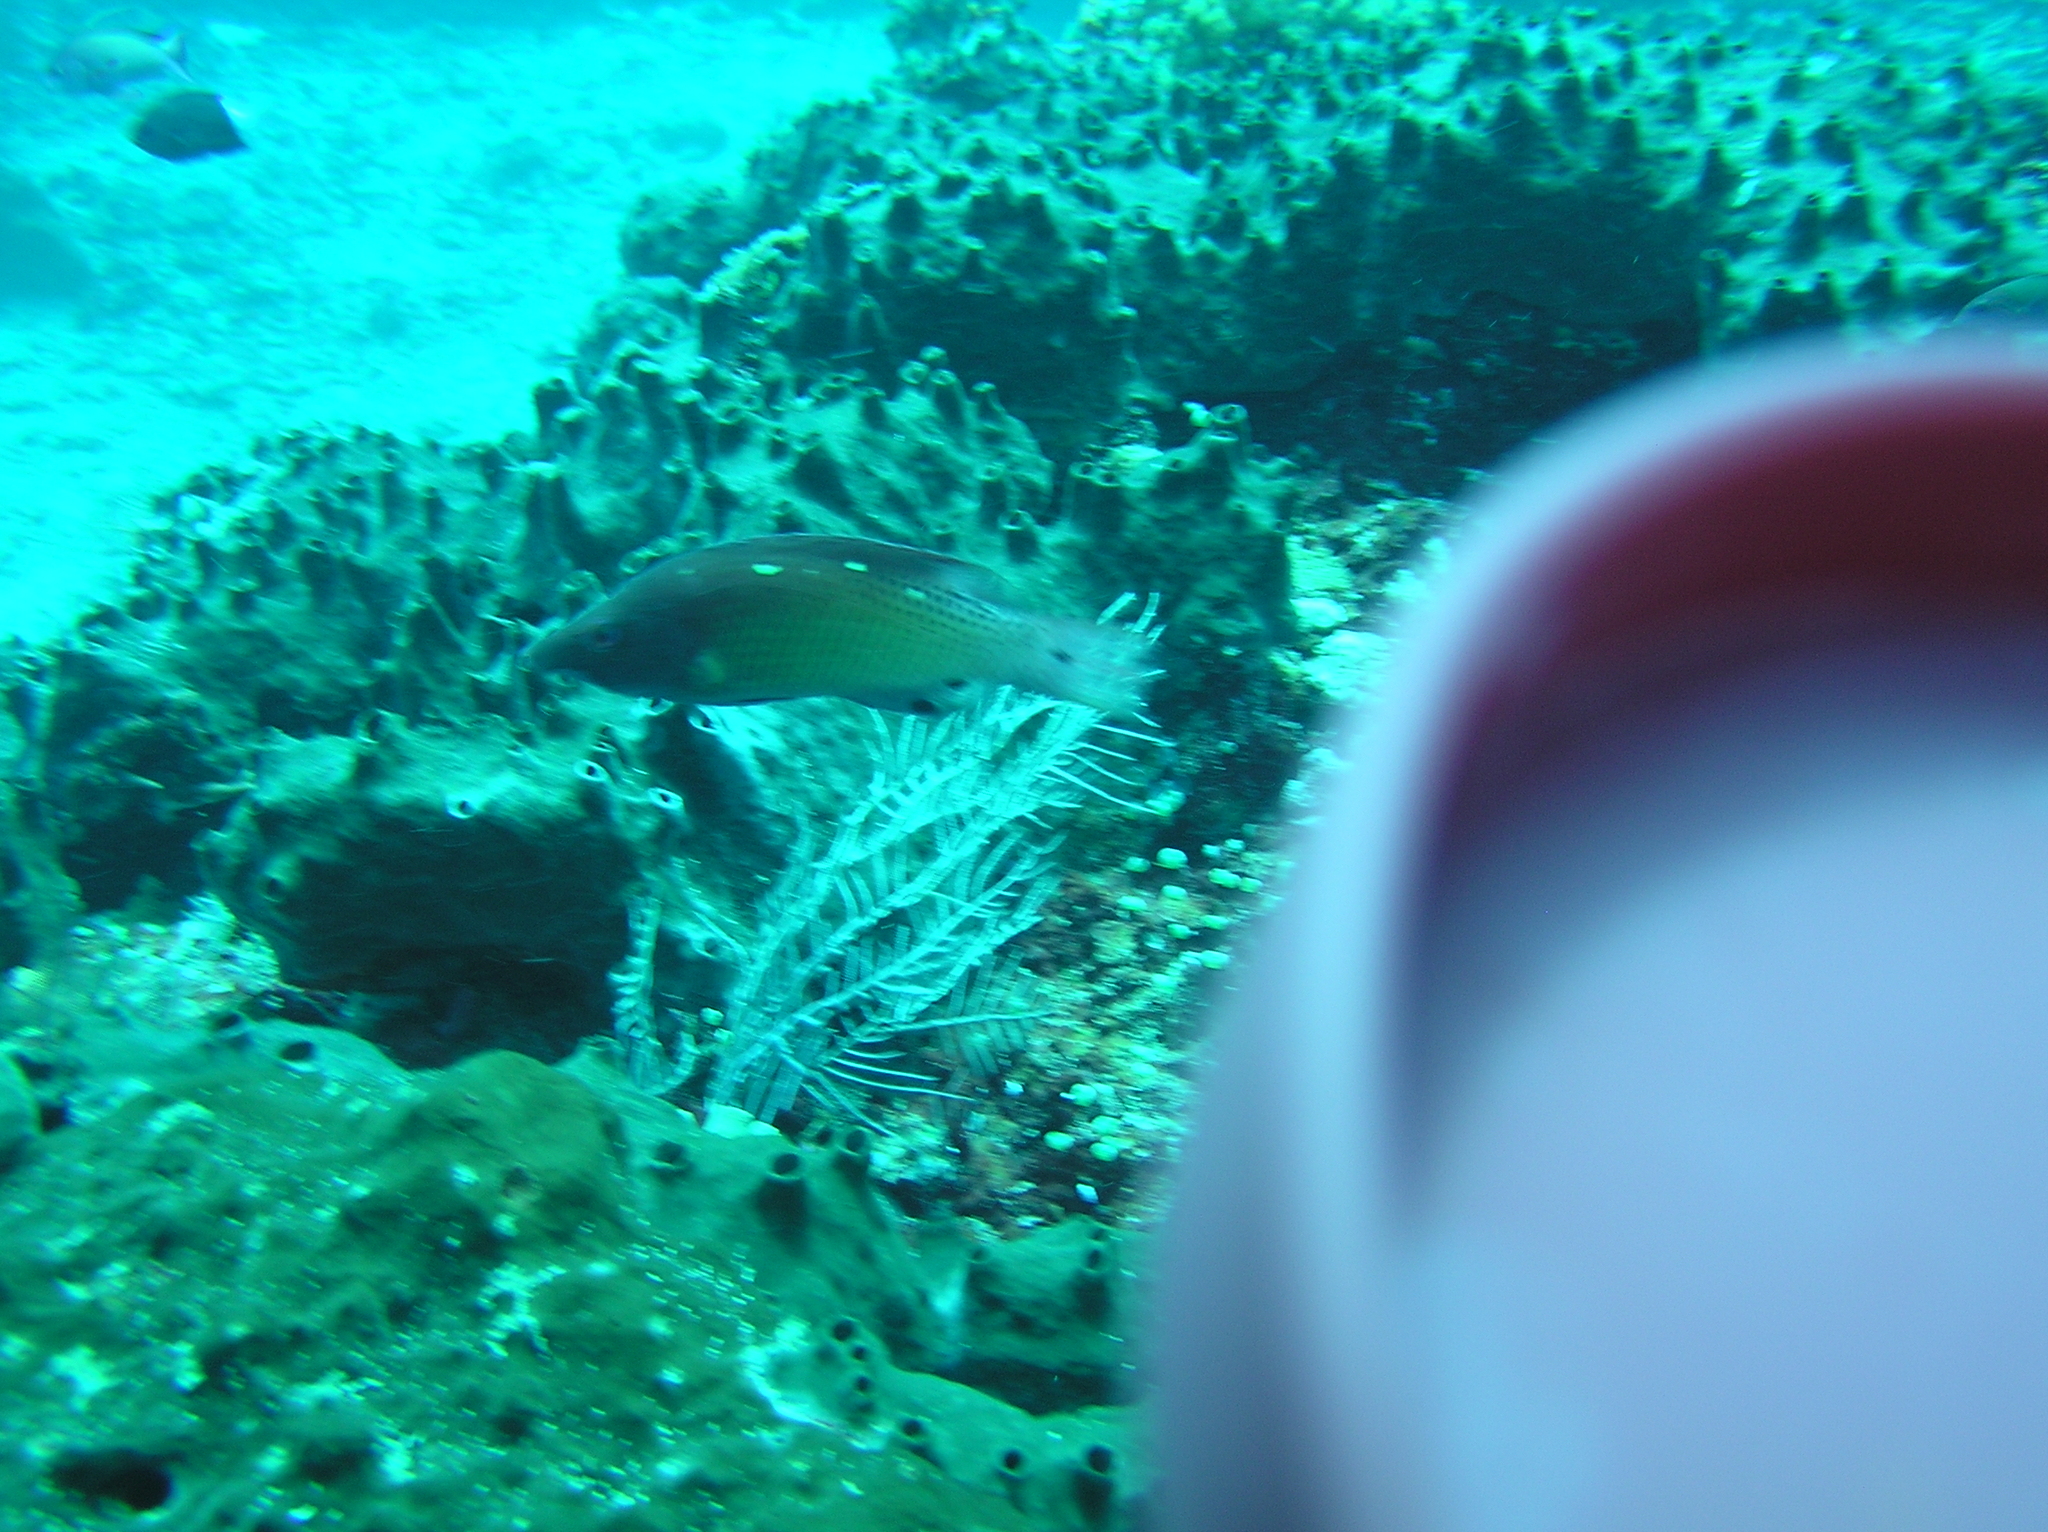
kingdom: Animalia
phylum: Chordata
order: Perciformes
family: Labridae
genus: Bodianus
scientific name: Bodianus dictynna
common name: Diana's hogfish
